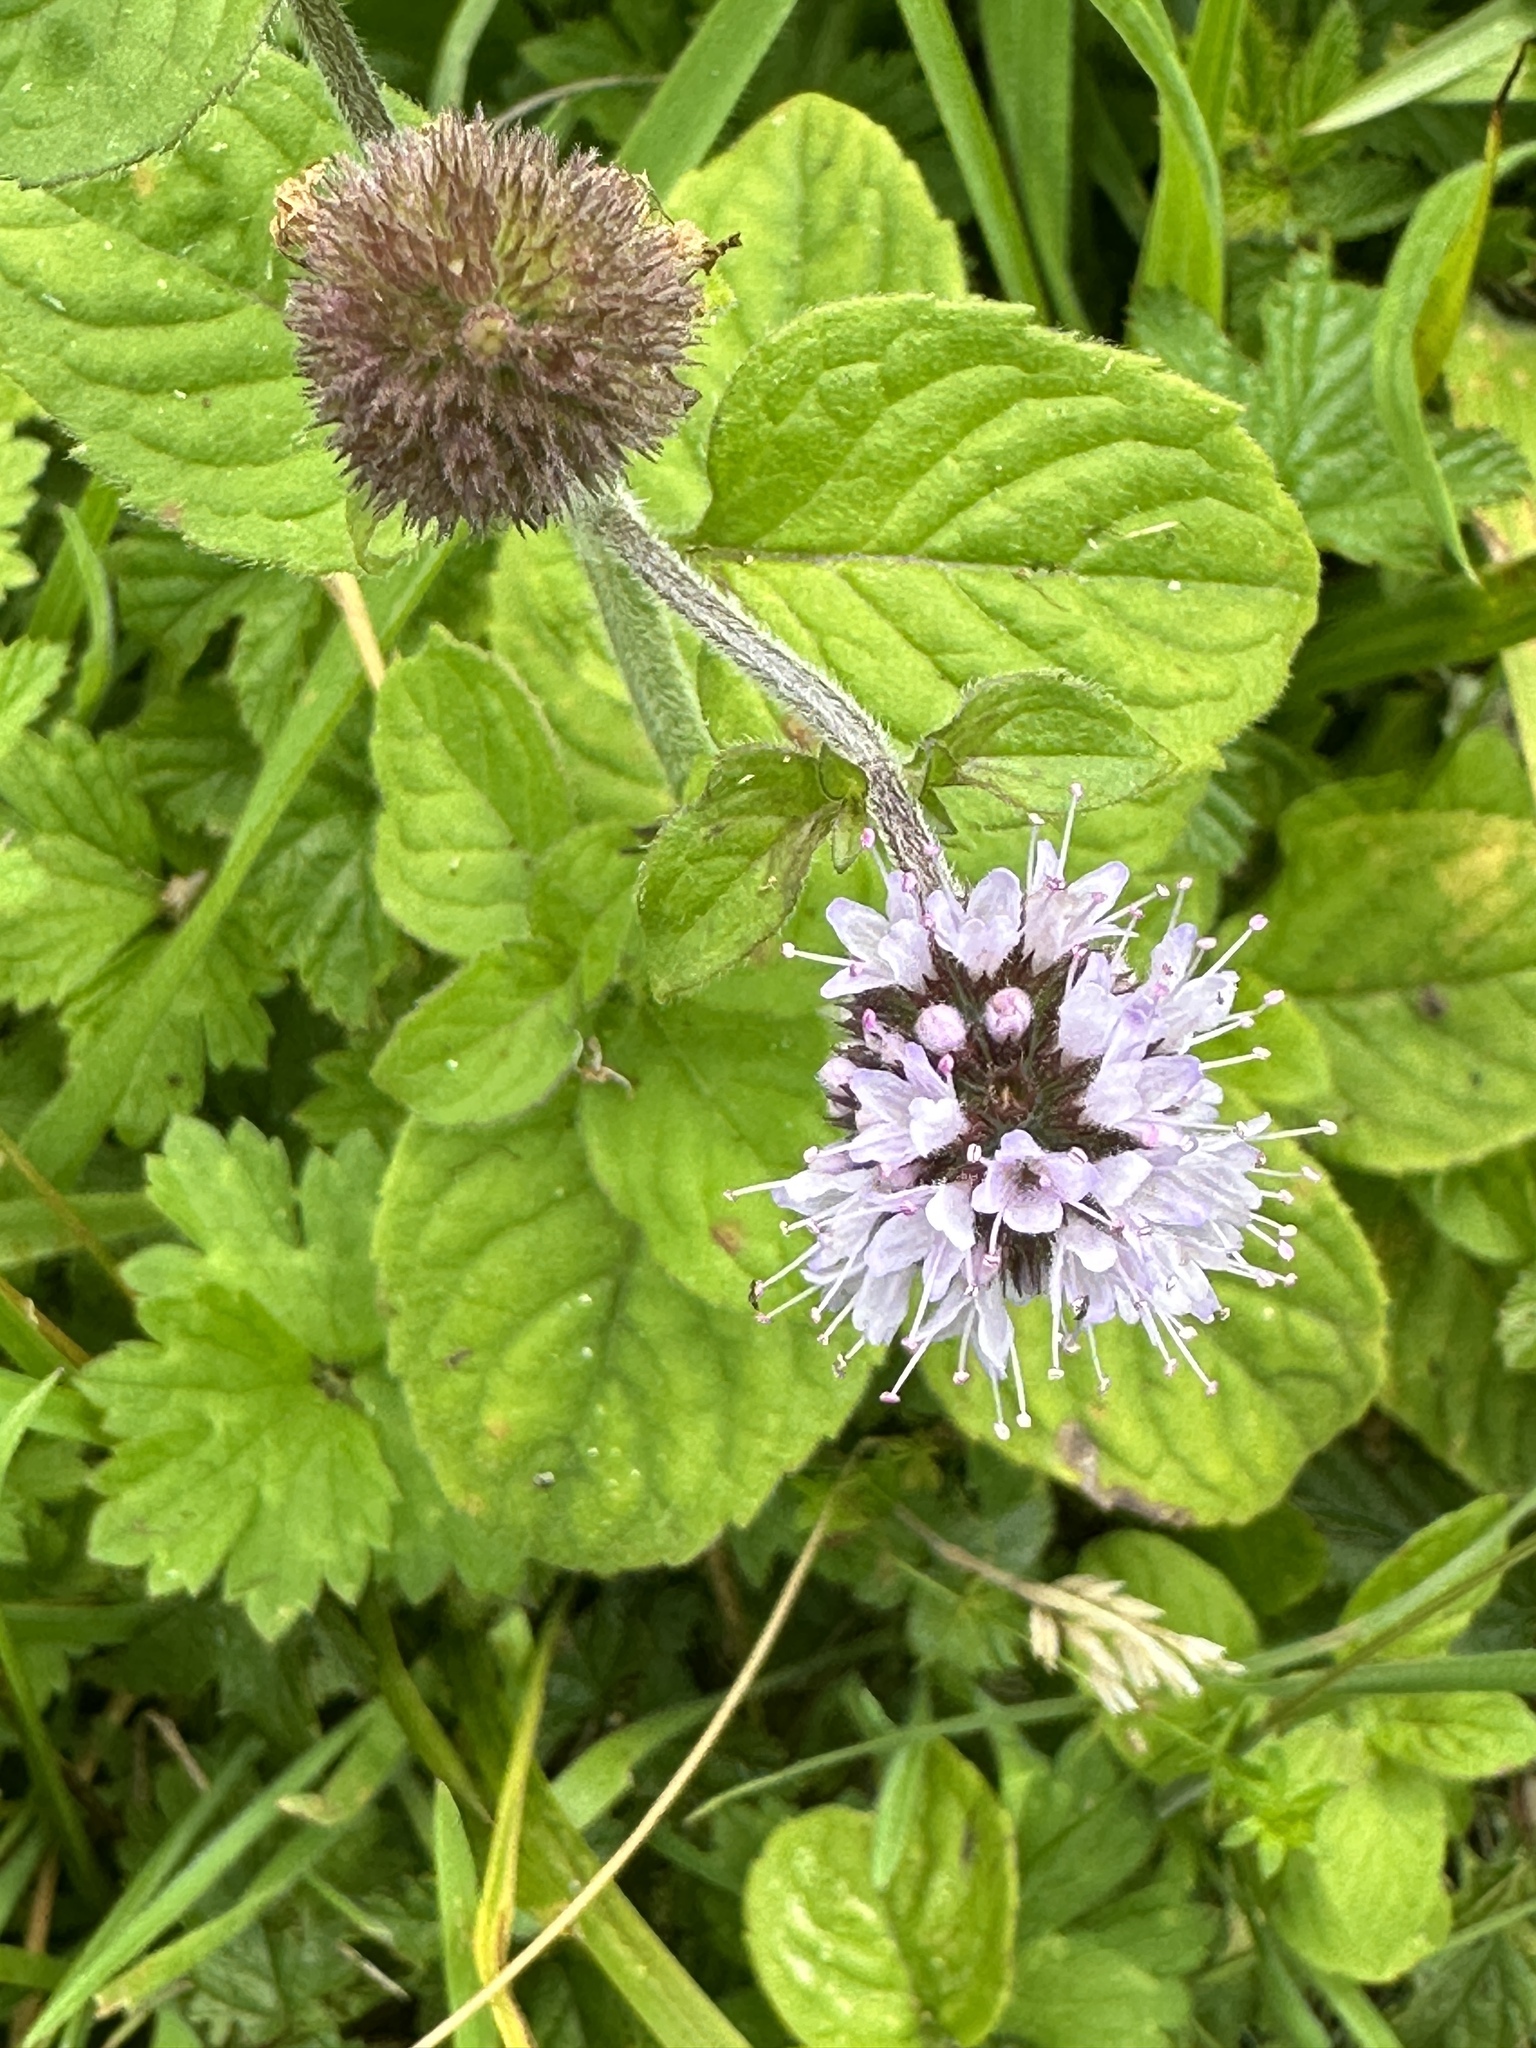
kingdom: Plantae
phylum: Tracheophyta
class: Magnoliopsida
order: Lamiales
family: Lamiaceae
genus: Mentha
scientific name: Mentha aquatica
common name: Water mint
